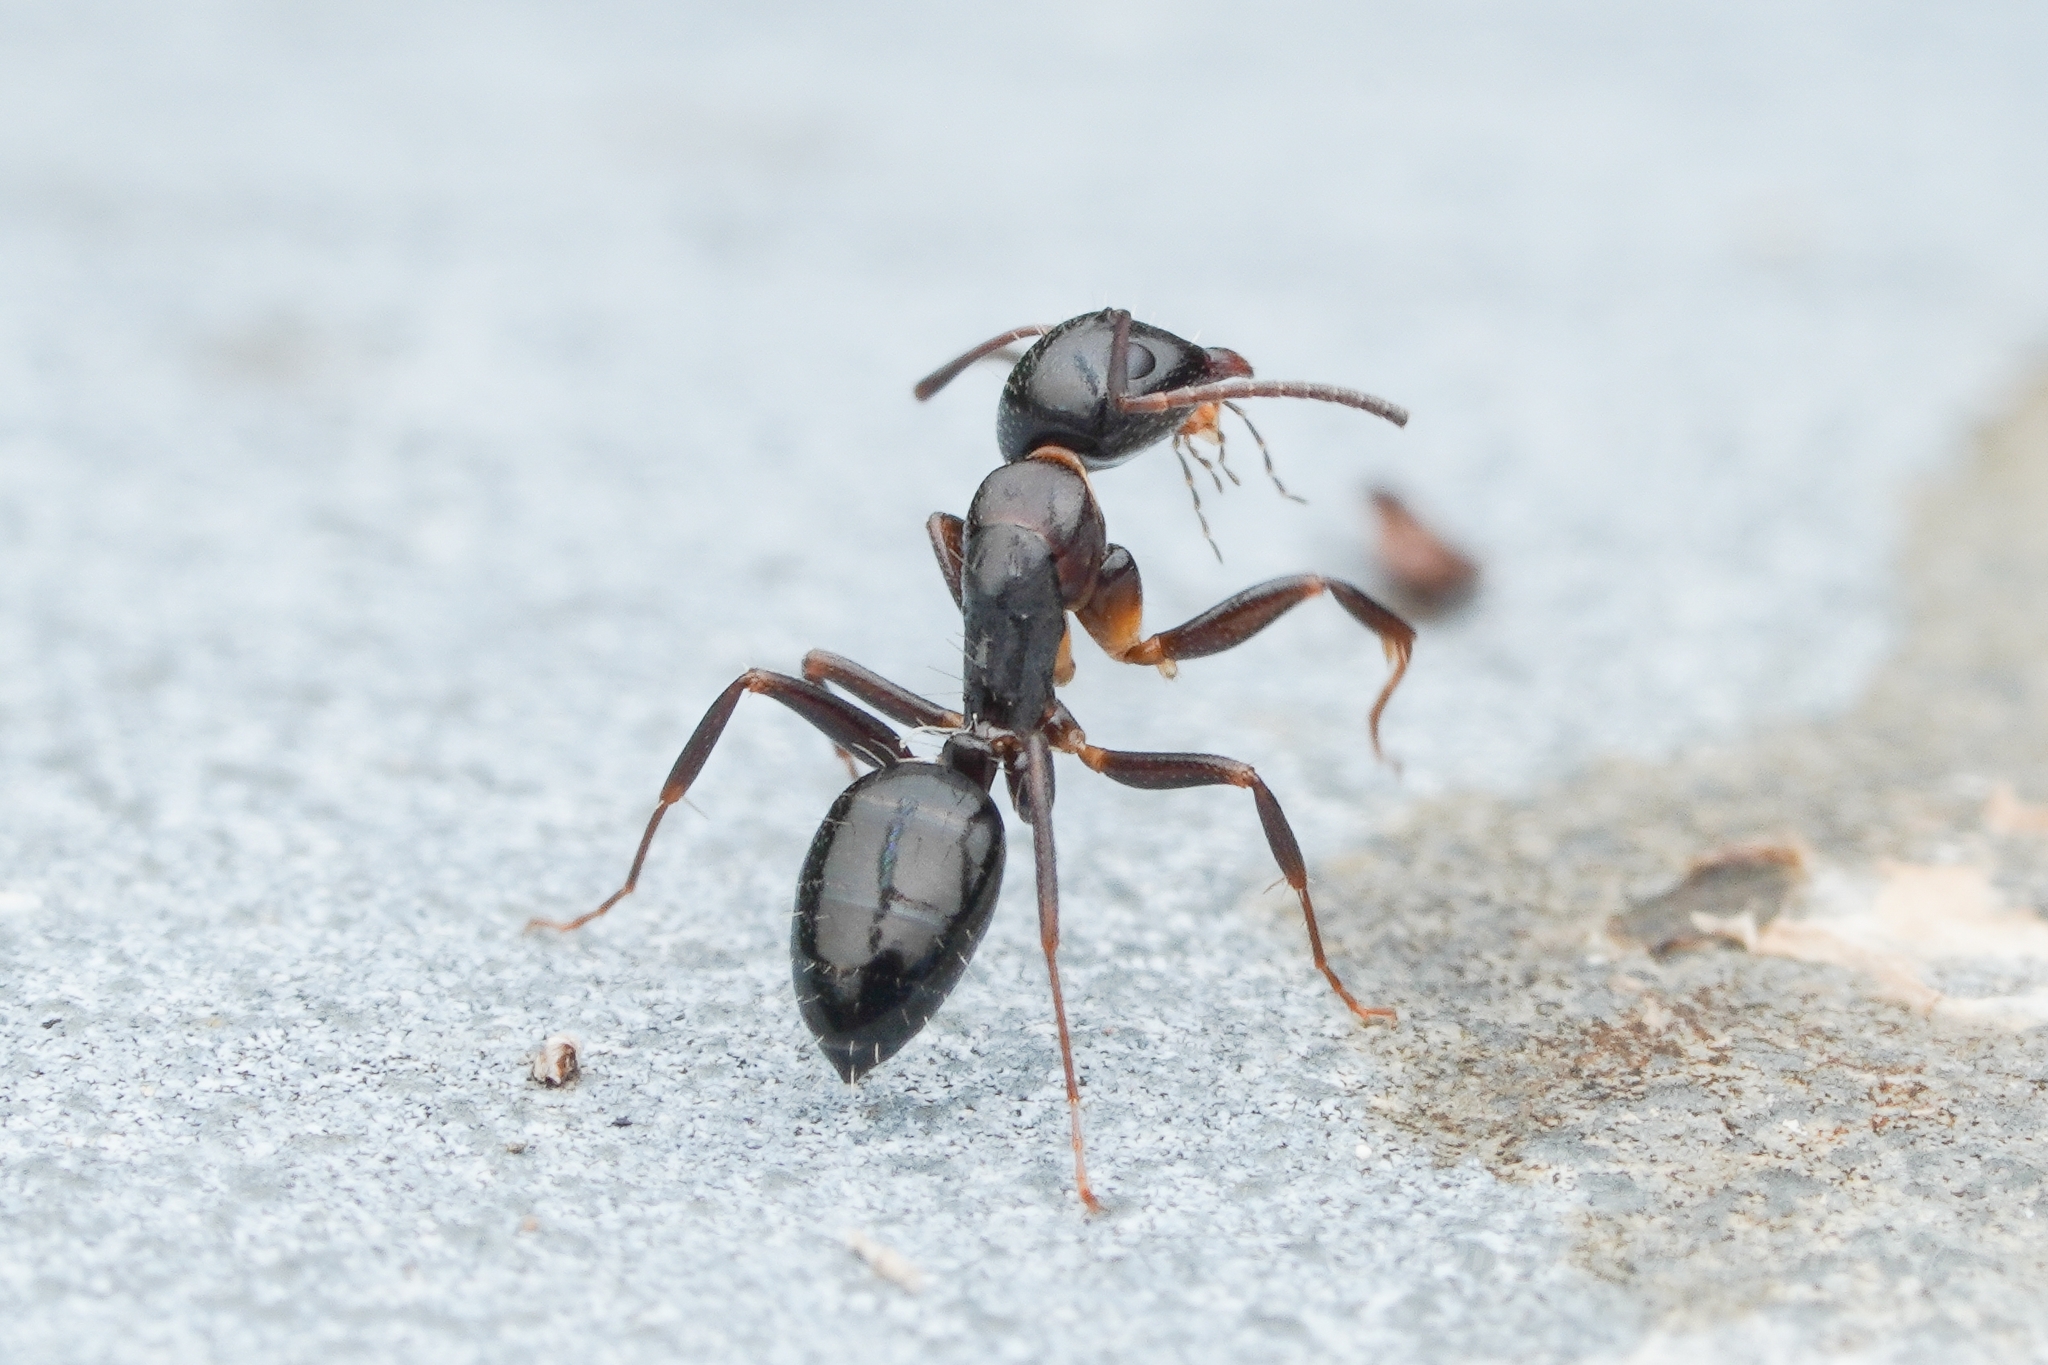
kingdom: Animalia
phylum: Arthropoda
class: Insecta
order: Hymenoptera
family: Formicidae
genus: Camponotus
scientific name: Camponotus vitiosus
